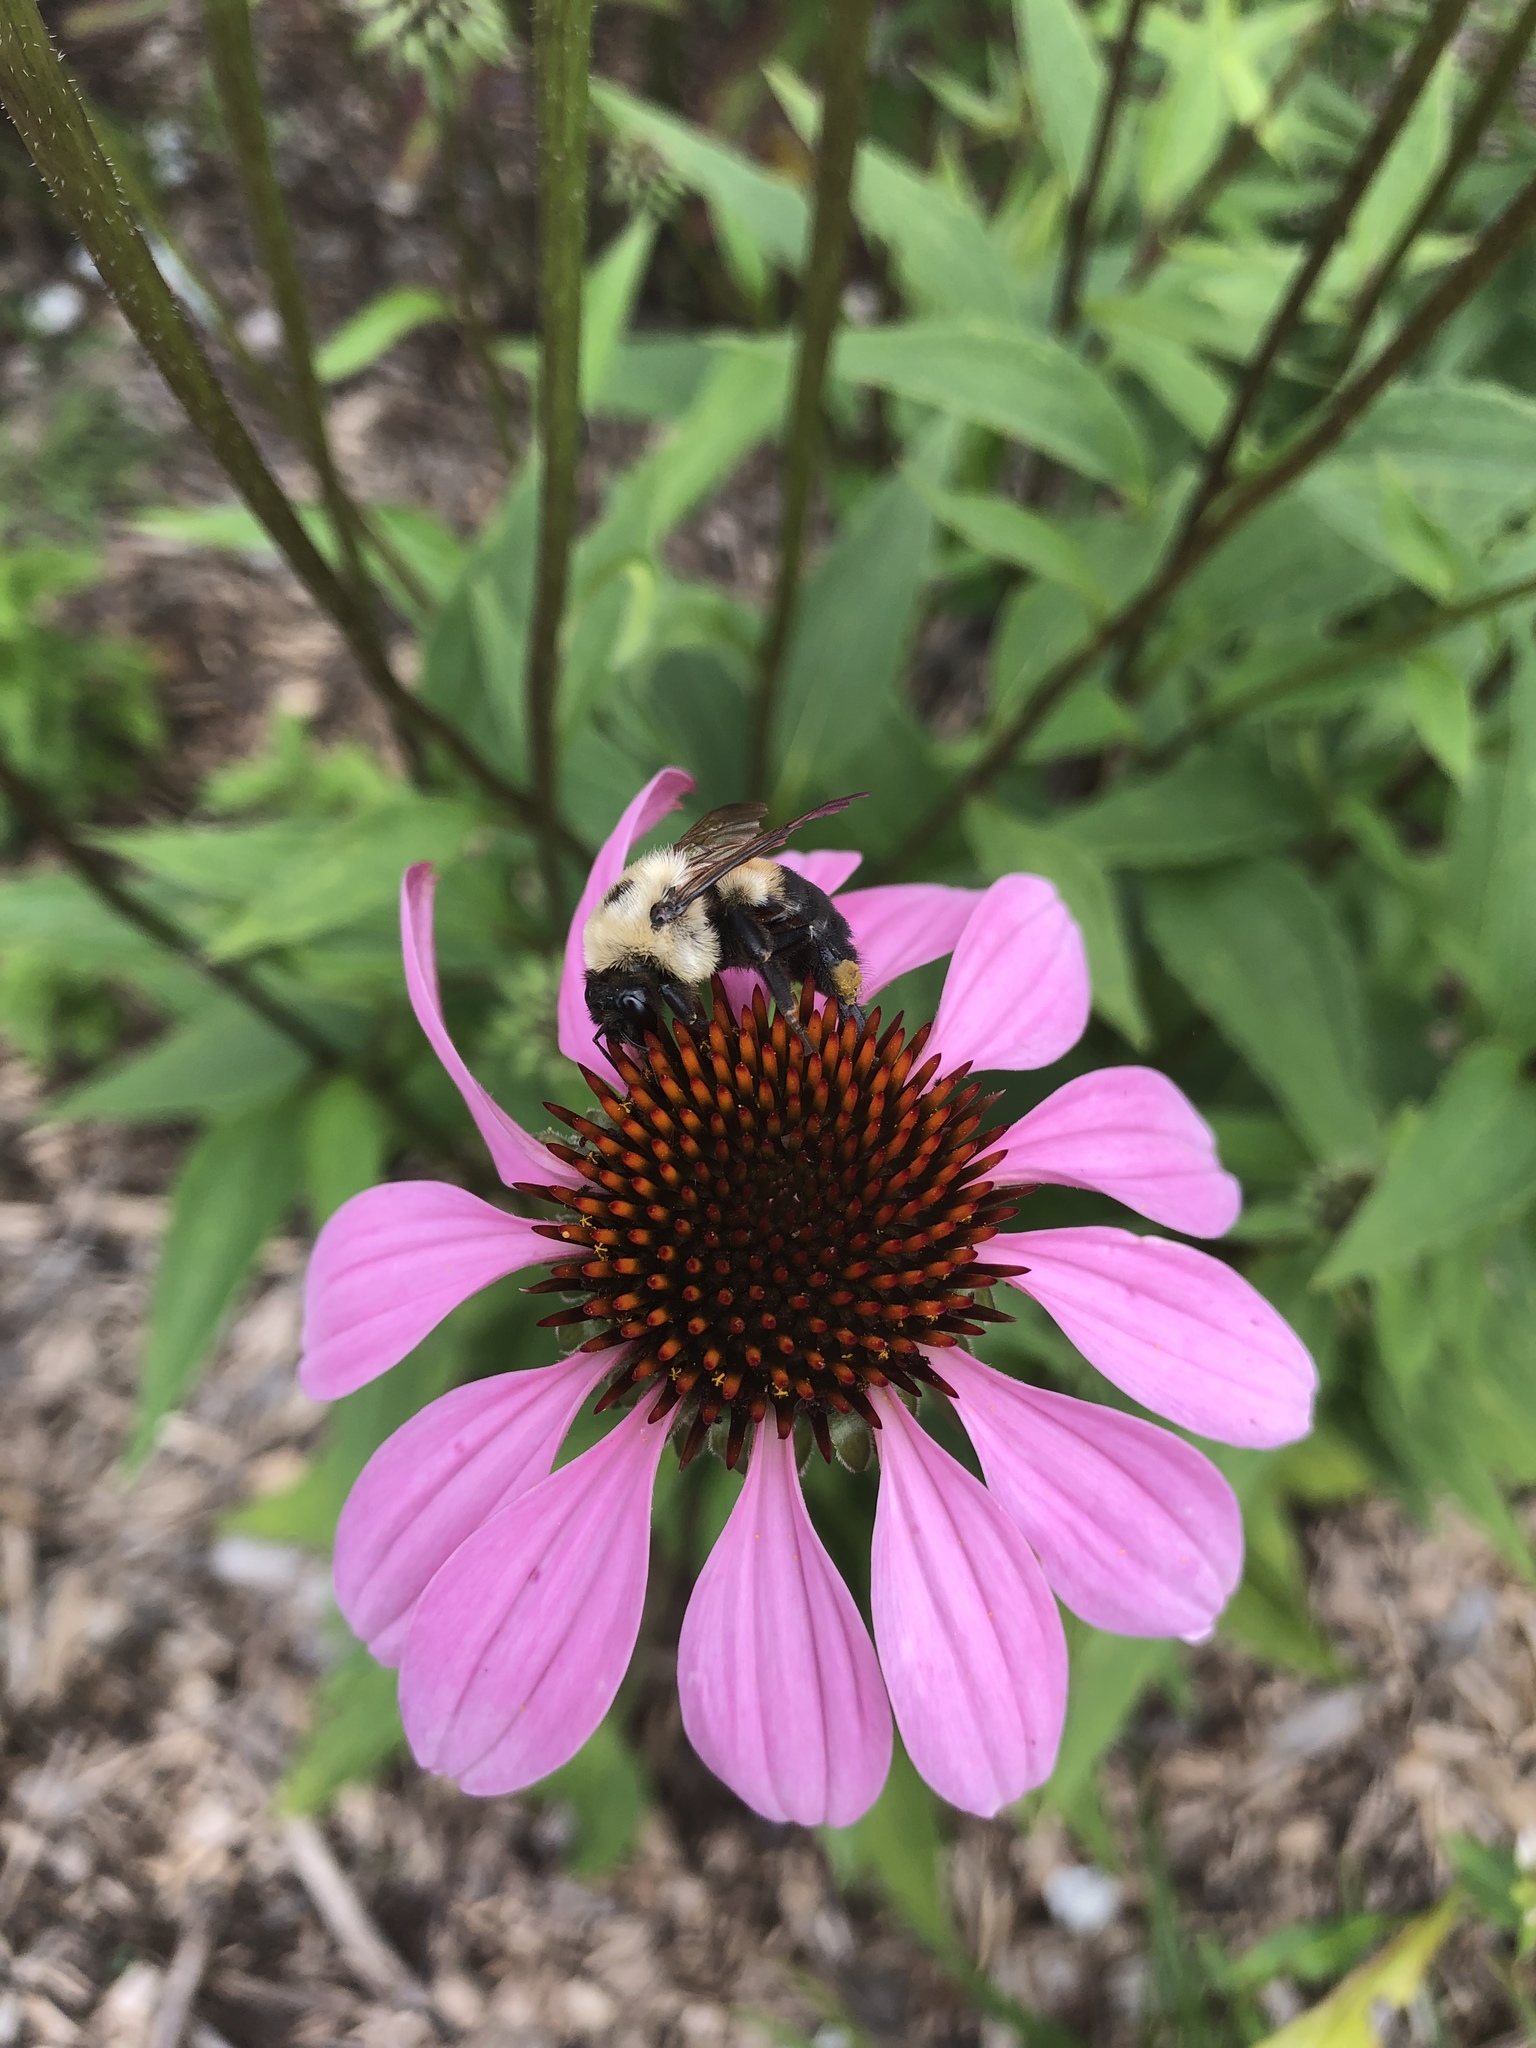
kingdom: Animalia
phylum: Arthropoda
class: Insecta
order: Hymenoptera
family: Apidae
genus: Bombus
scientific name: Bombus griseocollis
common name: Brown-belted bumble bee
